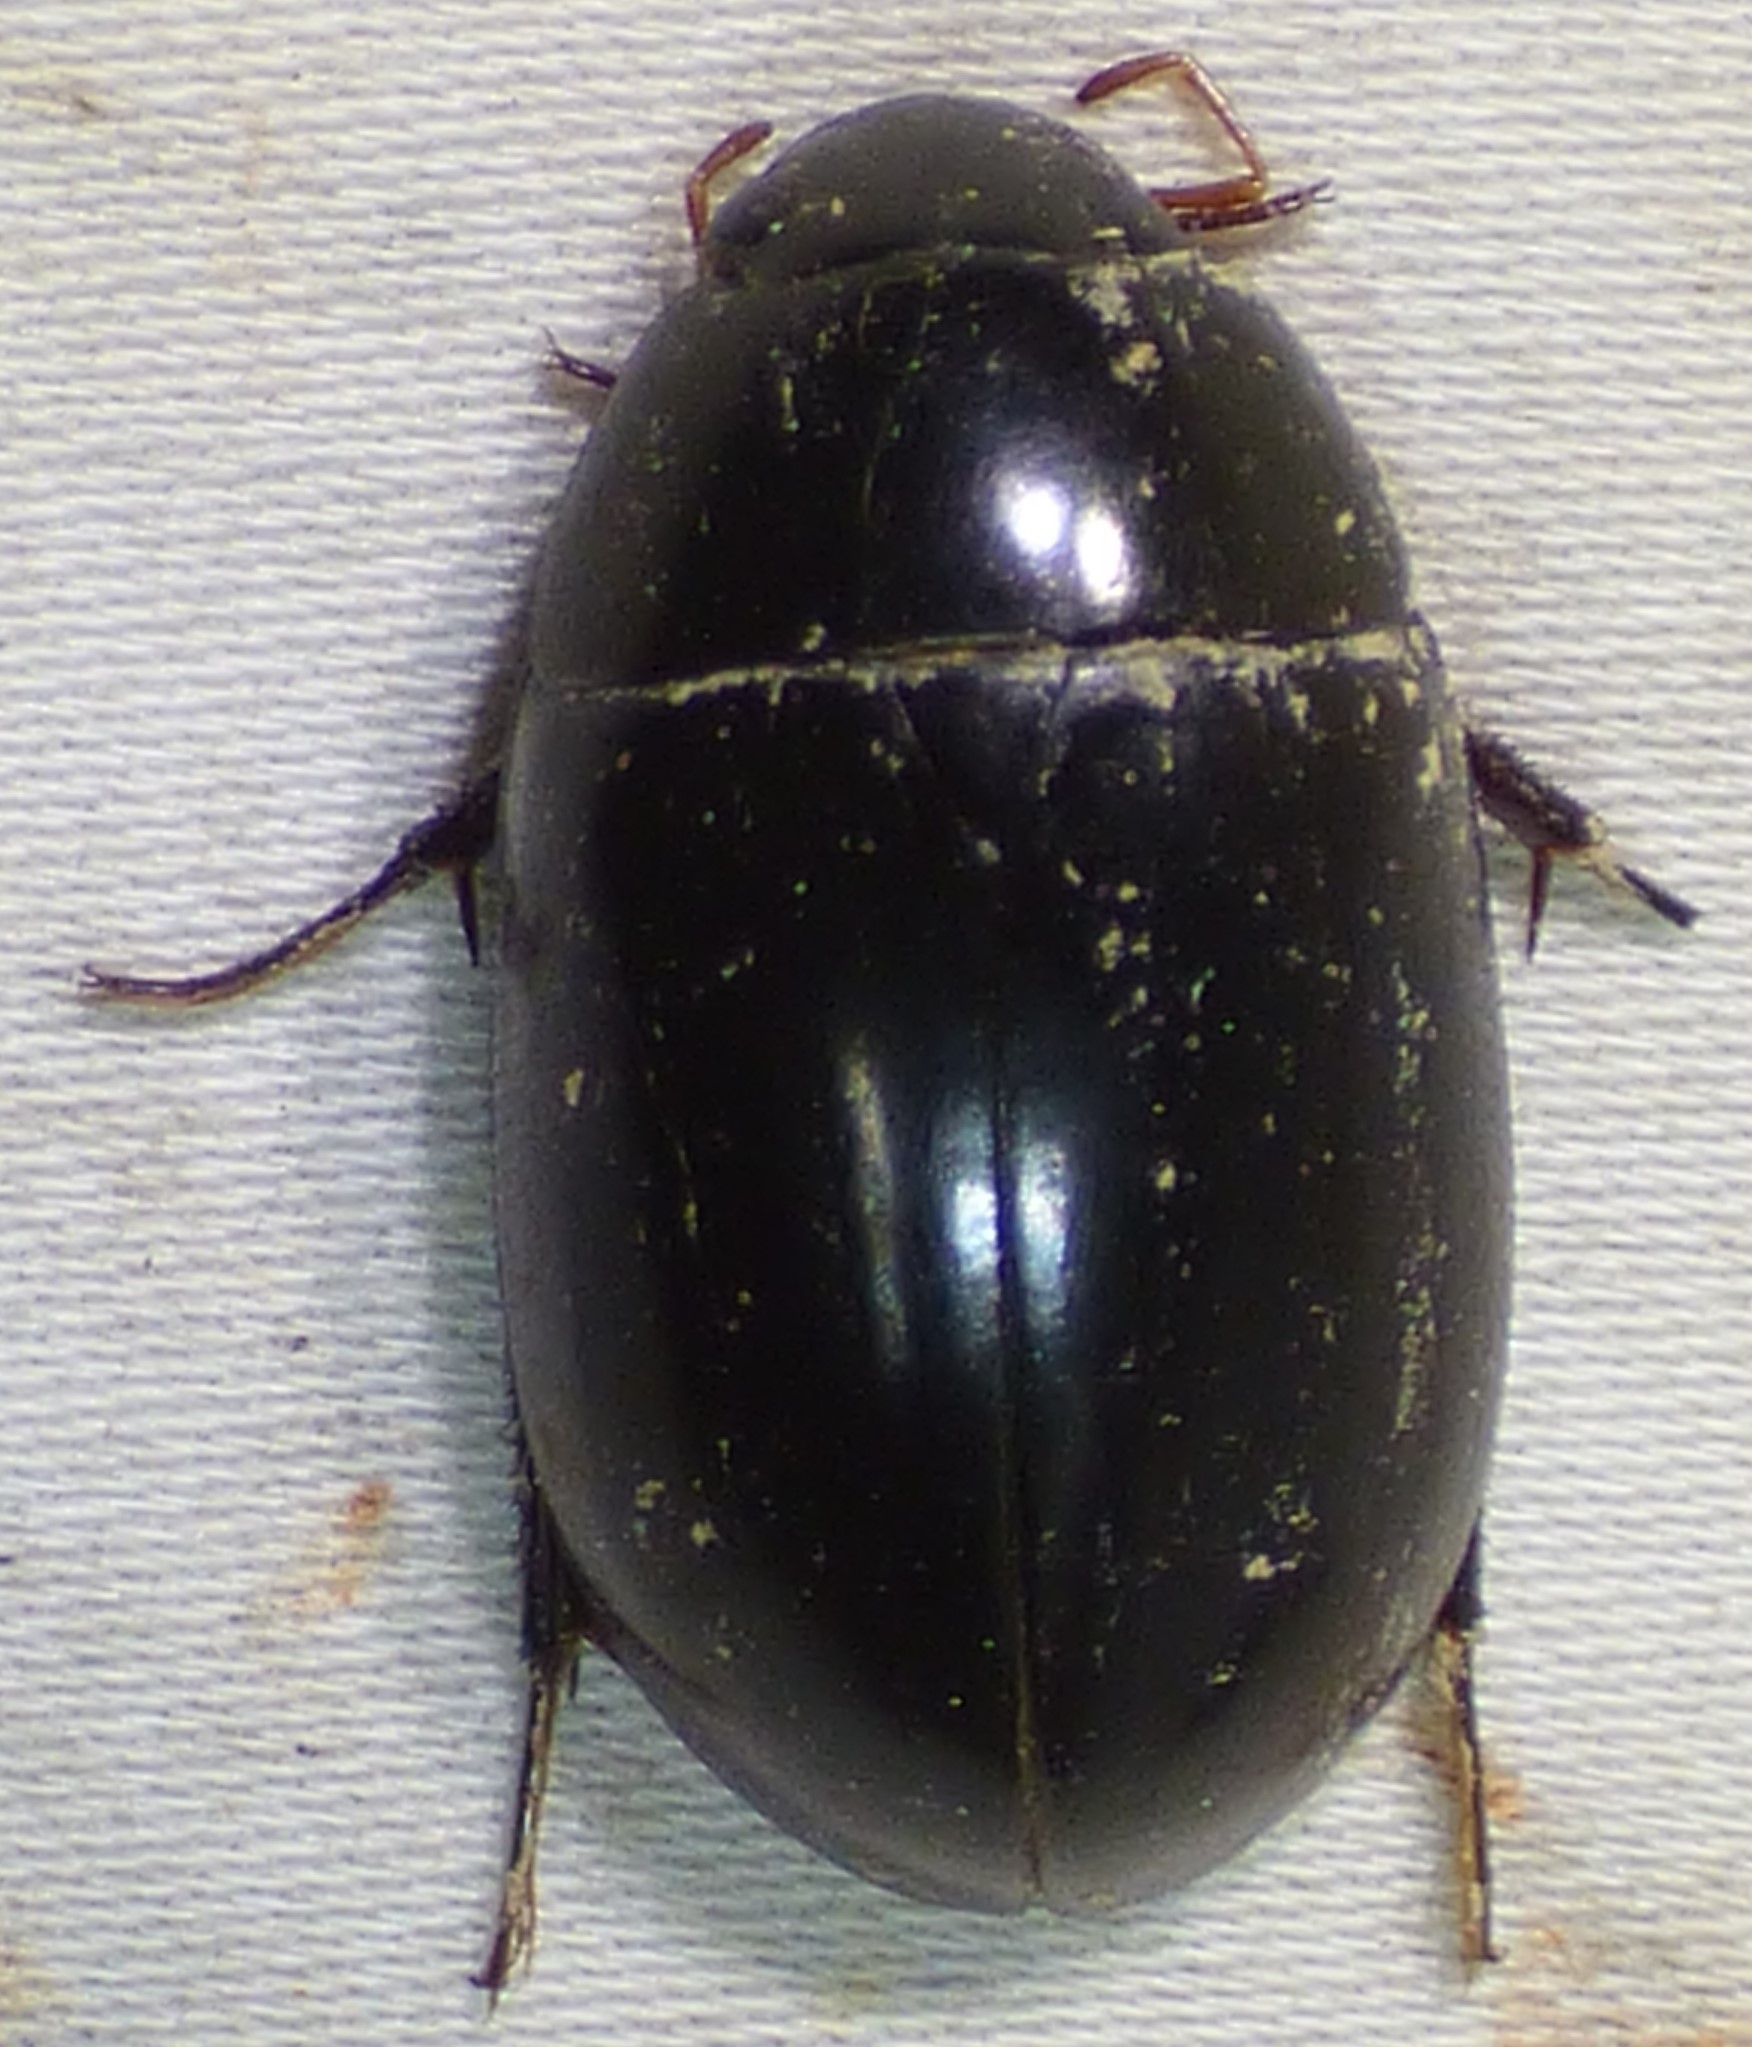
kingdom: Animalia
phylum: Arthropoda
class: Insecta
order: Coleoptera
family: Hydrophilidae
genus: Hydrochara
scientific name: Hydrochara soror
